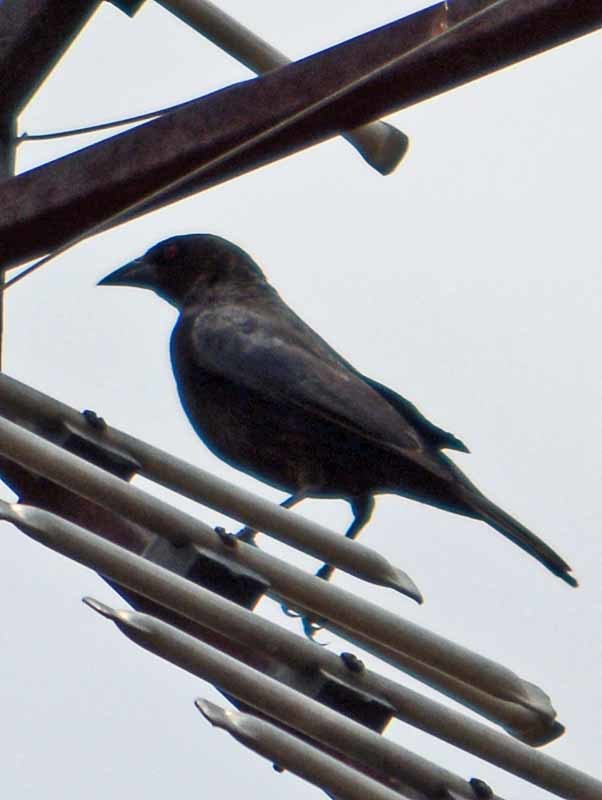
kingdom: Animalia
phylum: Chordata
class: Aves
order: Passeriformes
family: Icteridae
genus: Molothrus
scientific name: Molothrus aeneus
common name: Bronzed cowbird
